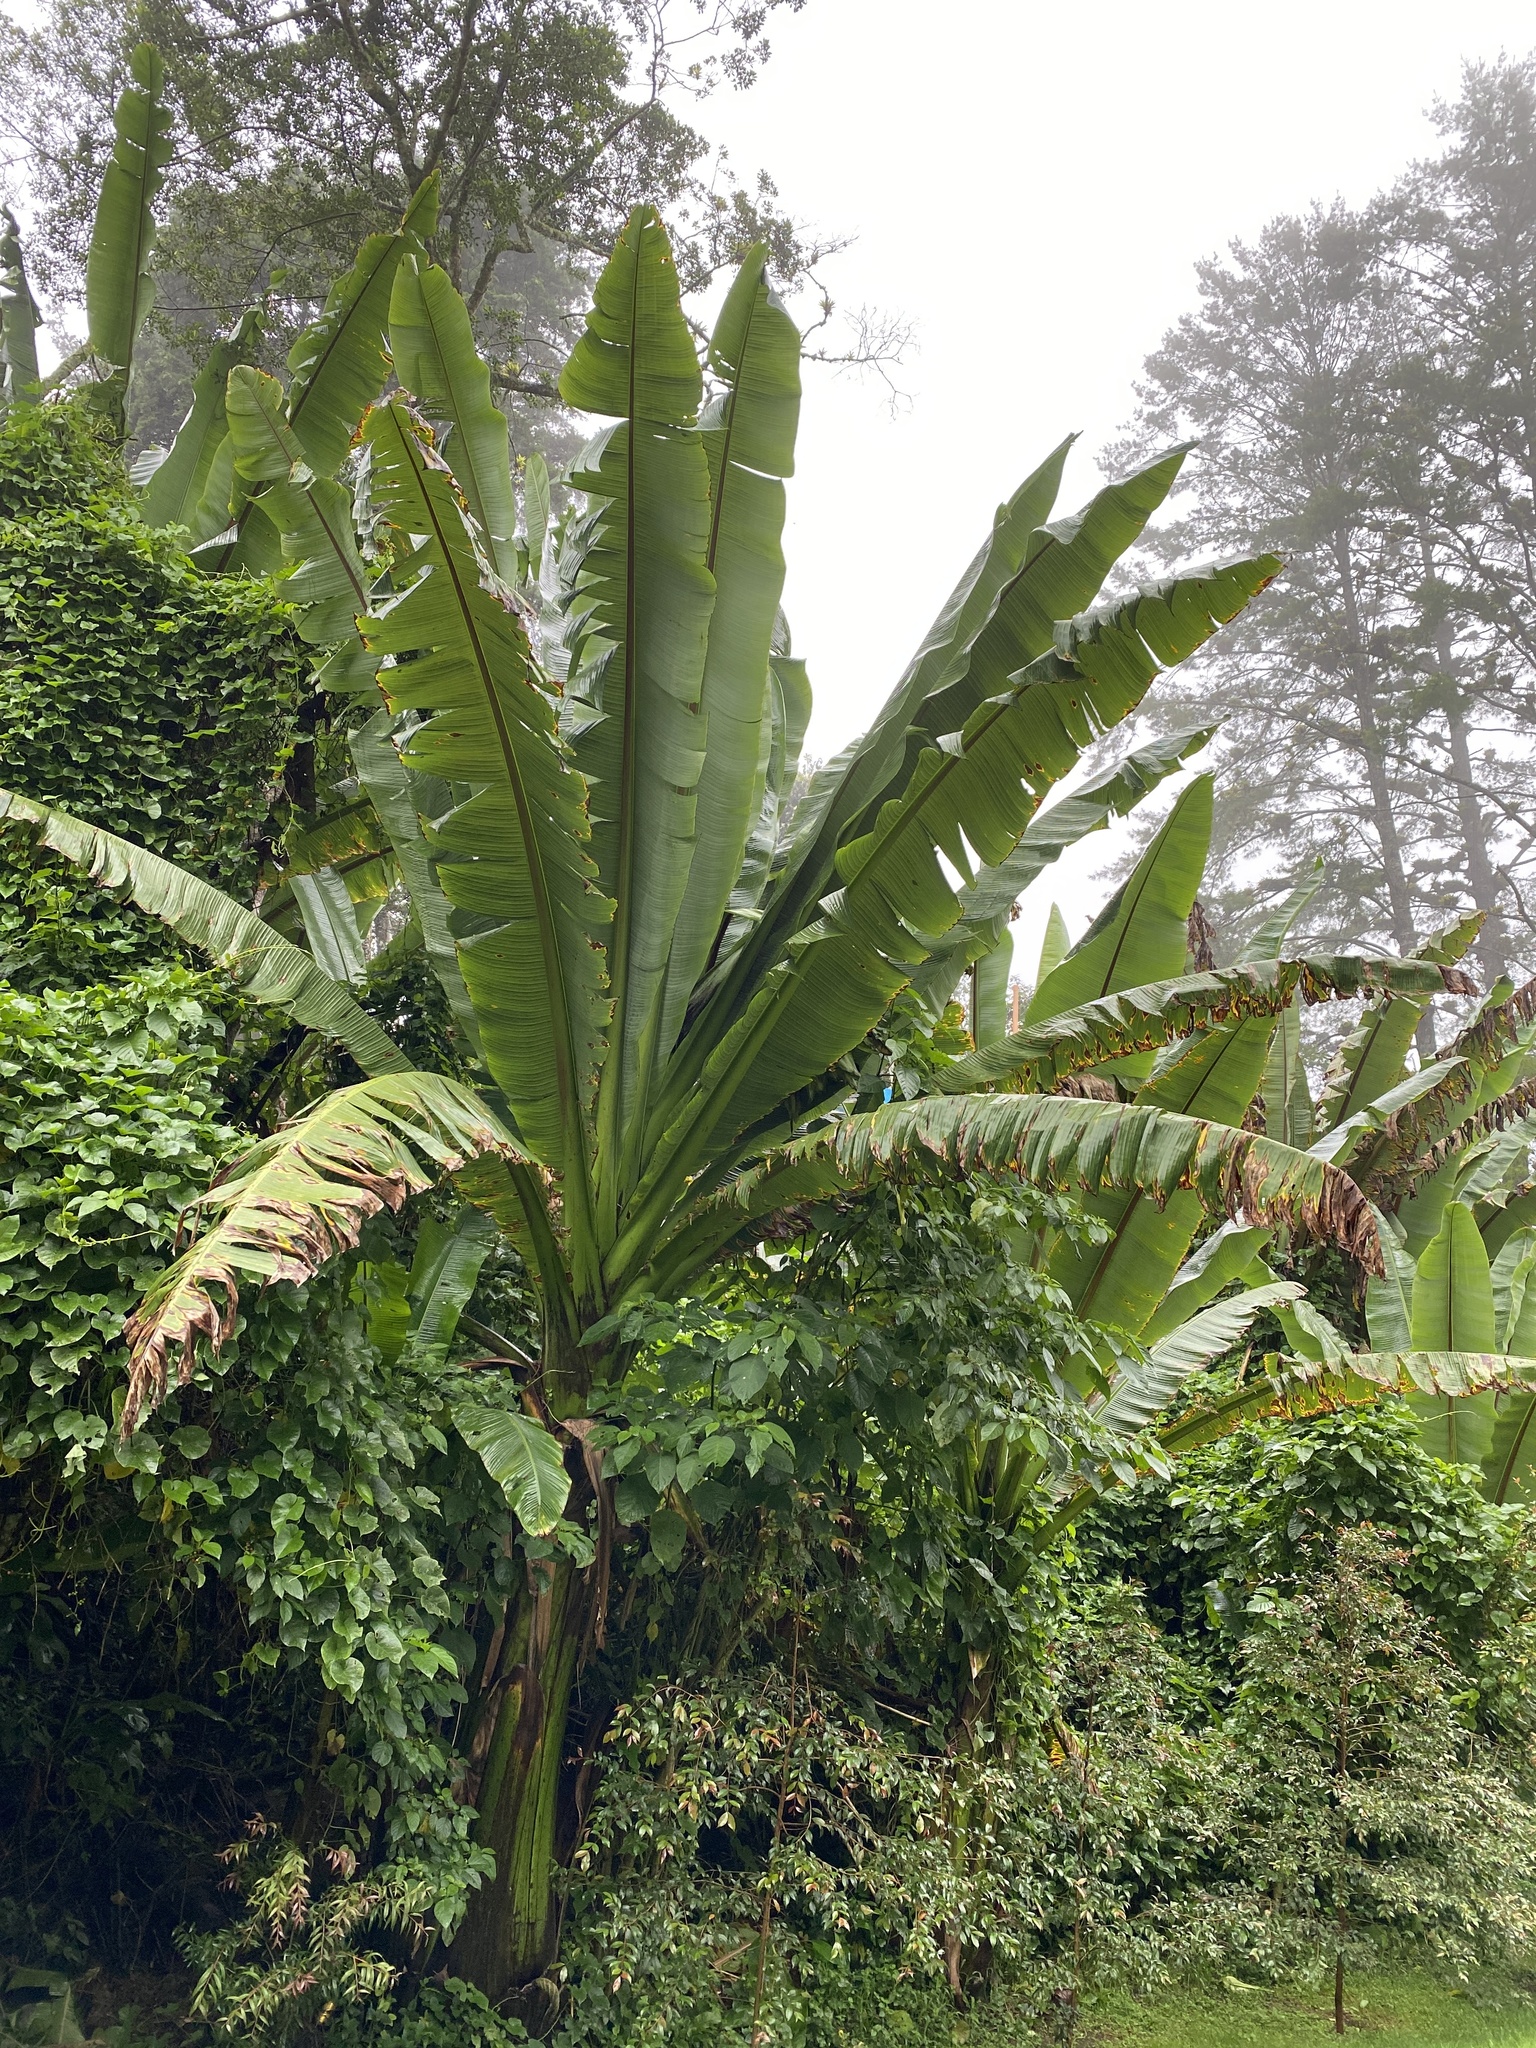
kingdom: Plantae
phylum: Tracheophyta
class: Liliopsida
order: Zingiberales
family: Musaceae
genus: Ensete
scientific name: Ensete ventricosum
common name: Abyssinian banana
